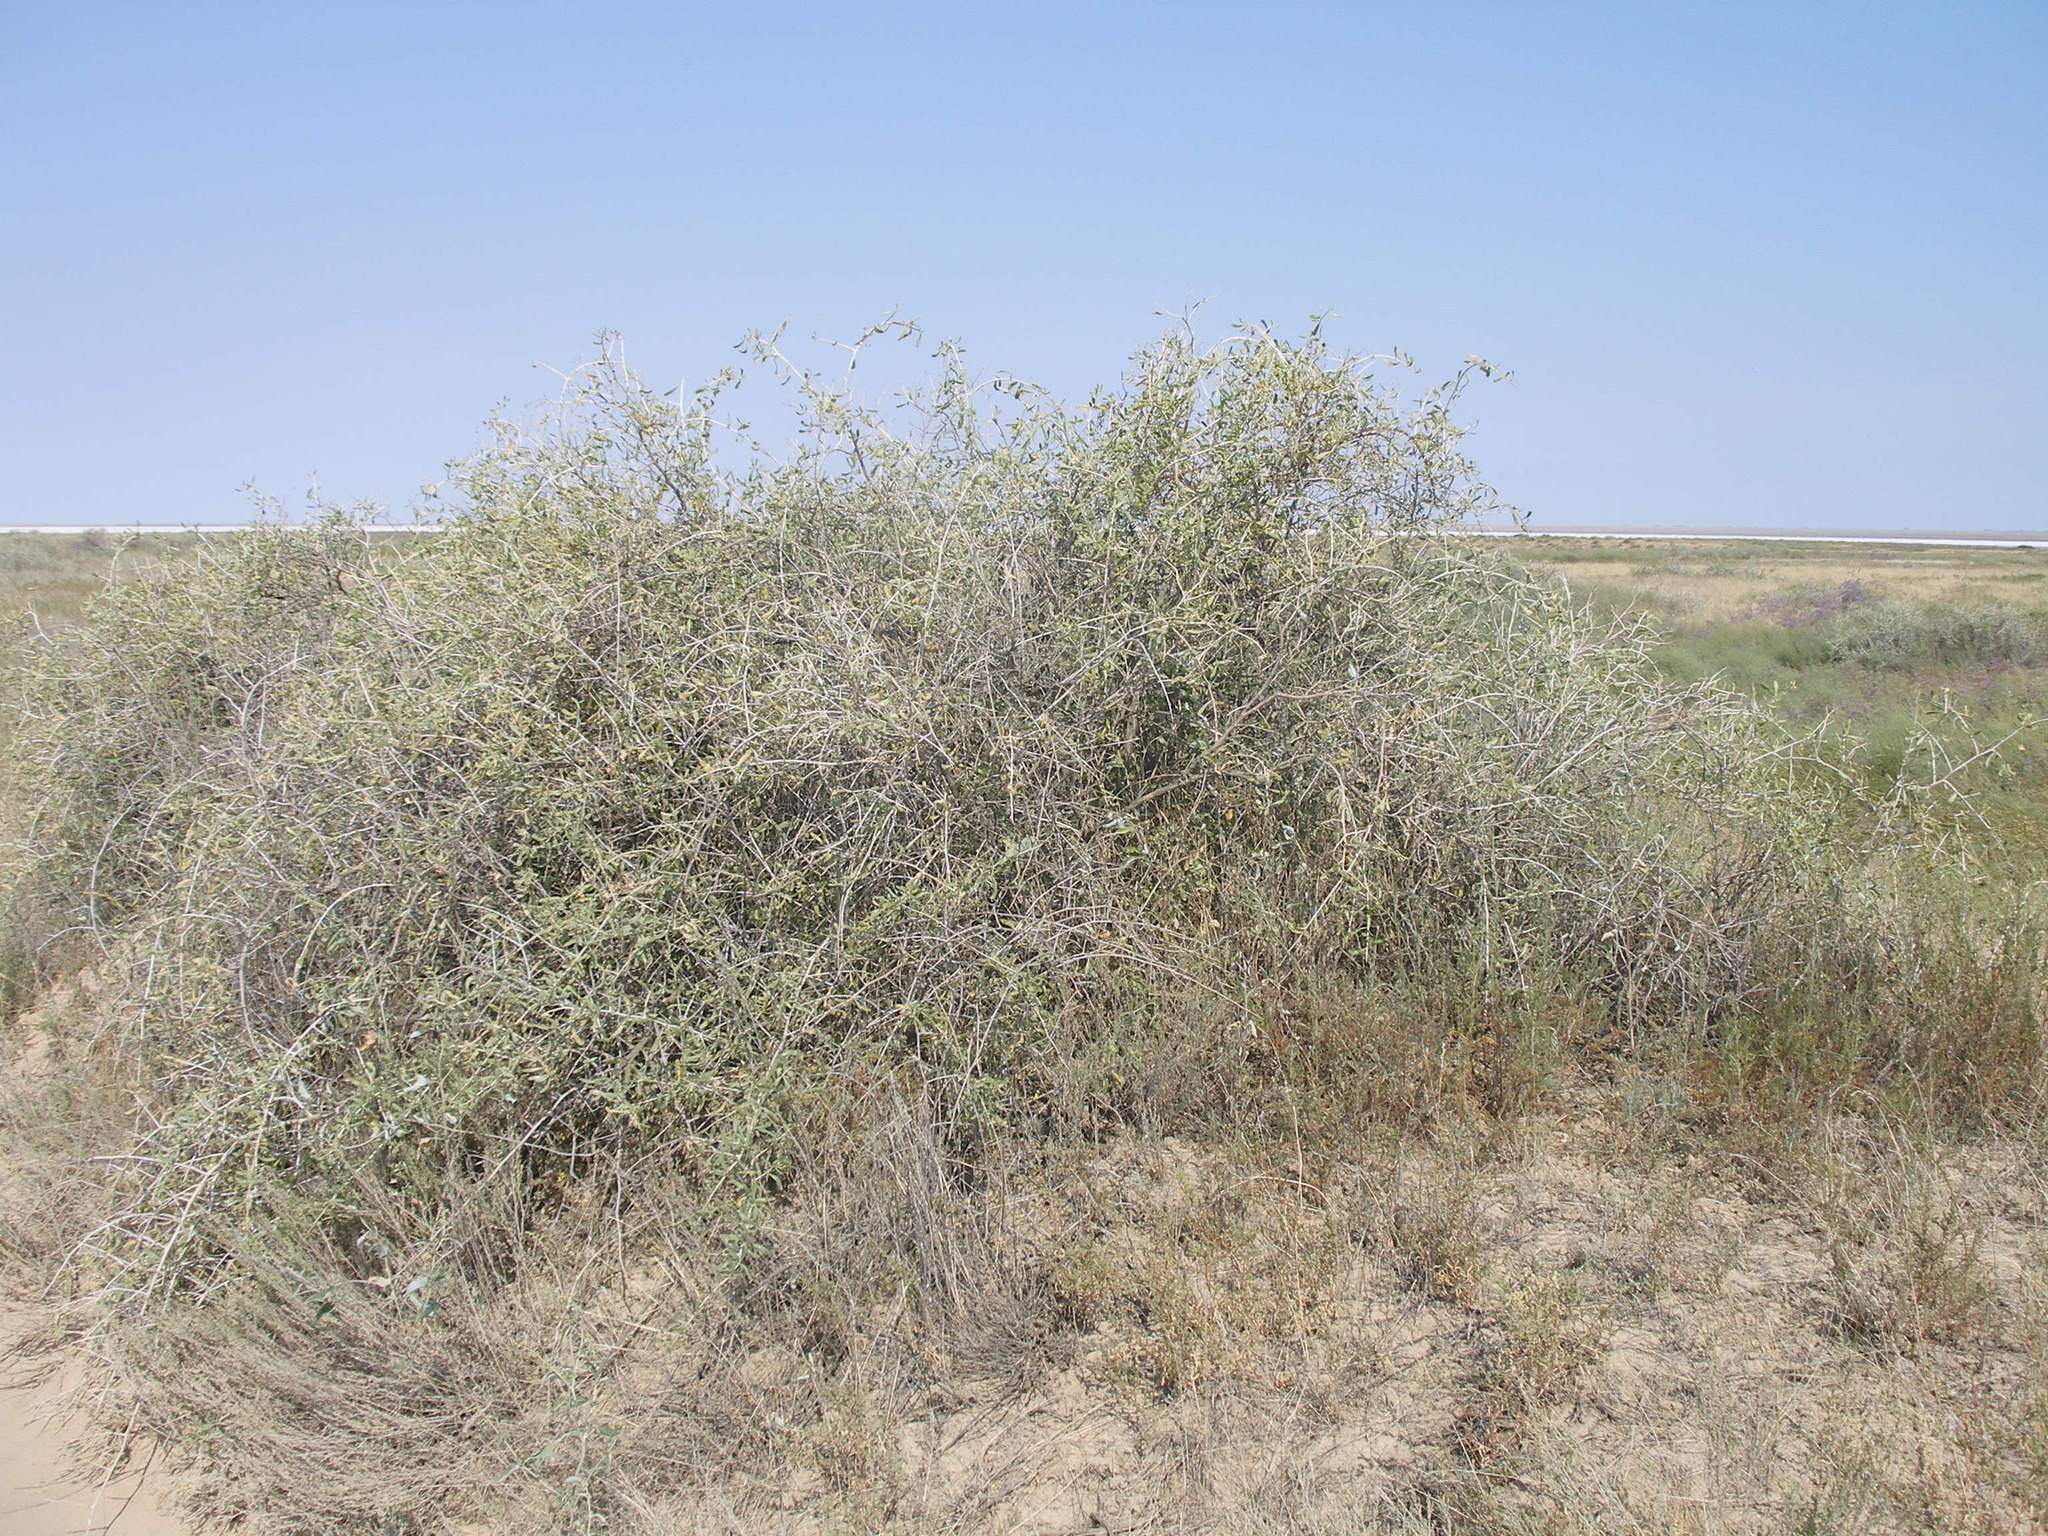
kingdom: Plantae
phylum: Tracheophyta
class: Magnoliopsida
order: Sapindales
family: Nitrariaceae
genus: Nitraria
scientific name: Nitraria schoberi
